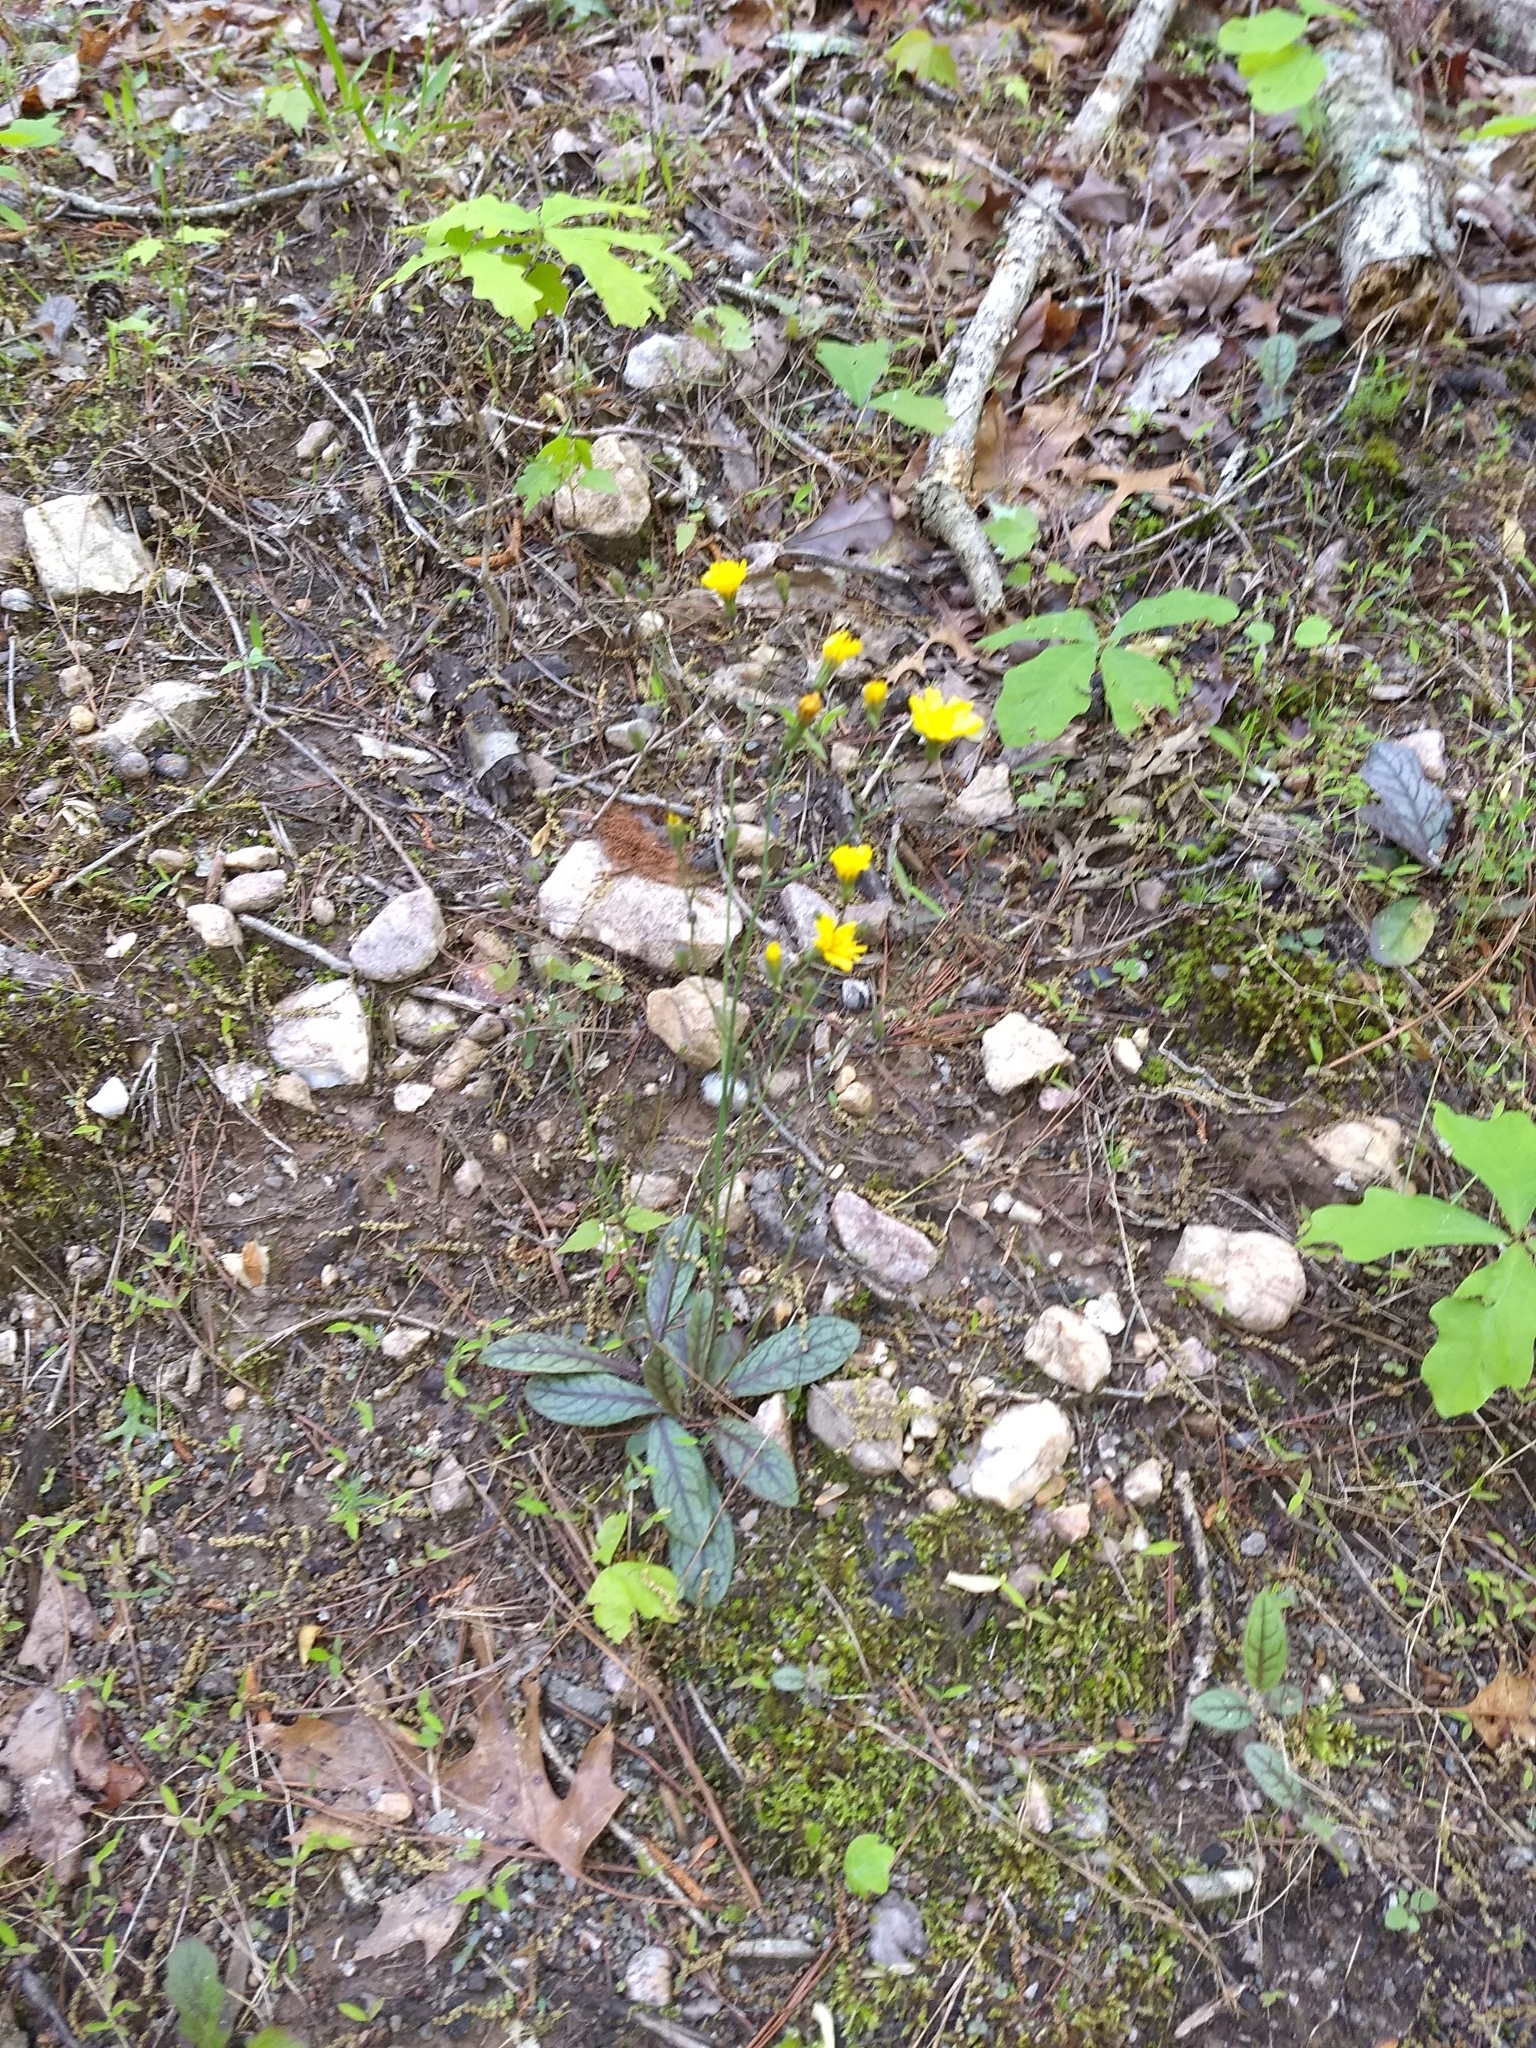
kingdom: Plantae
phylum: Tracheophyta
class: Magnoliopsida
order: Asterales
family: Asteraceae
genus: Hieracium
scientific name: Hieracium venosum
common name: Rattlesnake hawkweed
